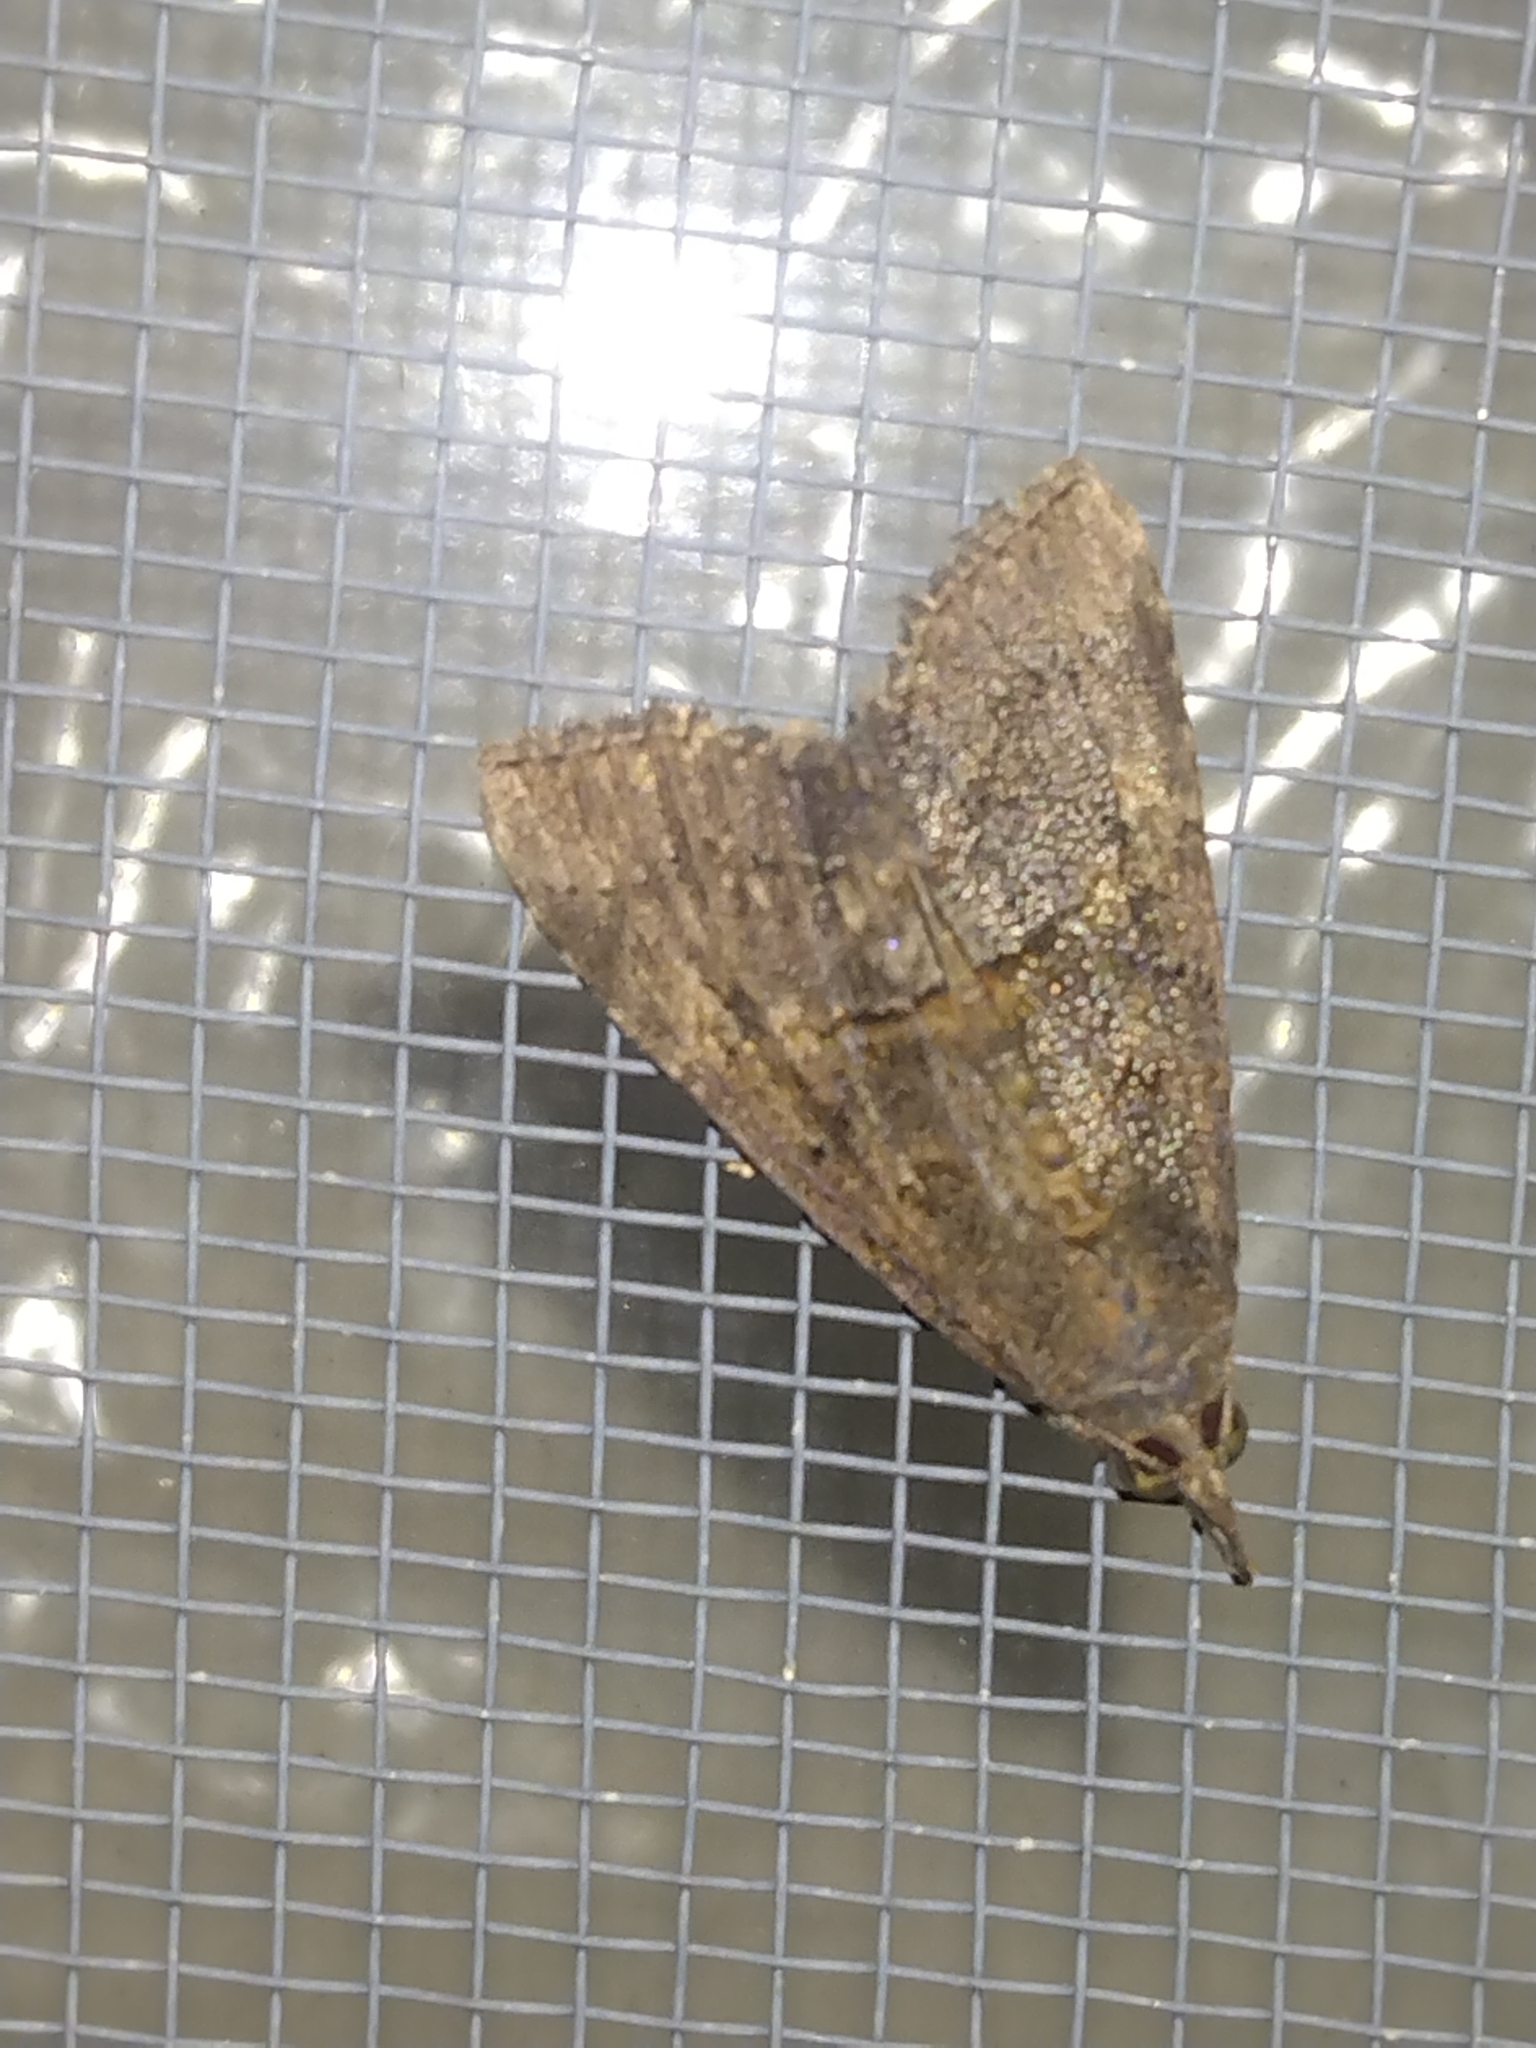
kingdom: Animalia
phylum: Arthropoda
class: Insecta
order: Lepidoptera
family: Erebidae
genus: Hypena
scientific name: Hypena scabra
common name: Green cloverworm
